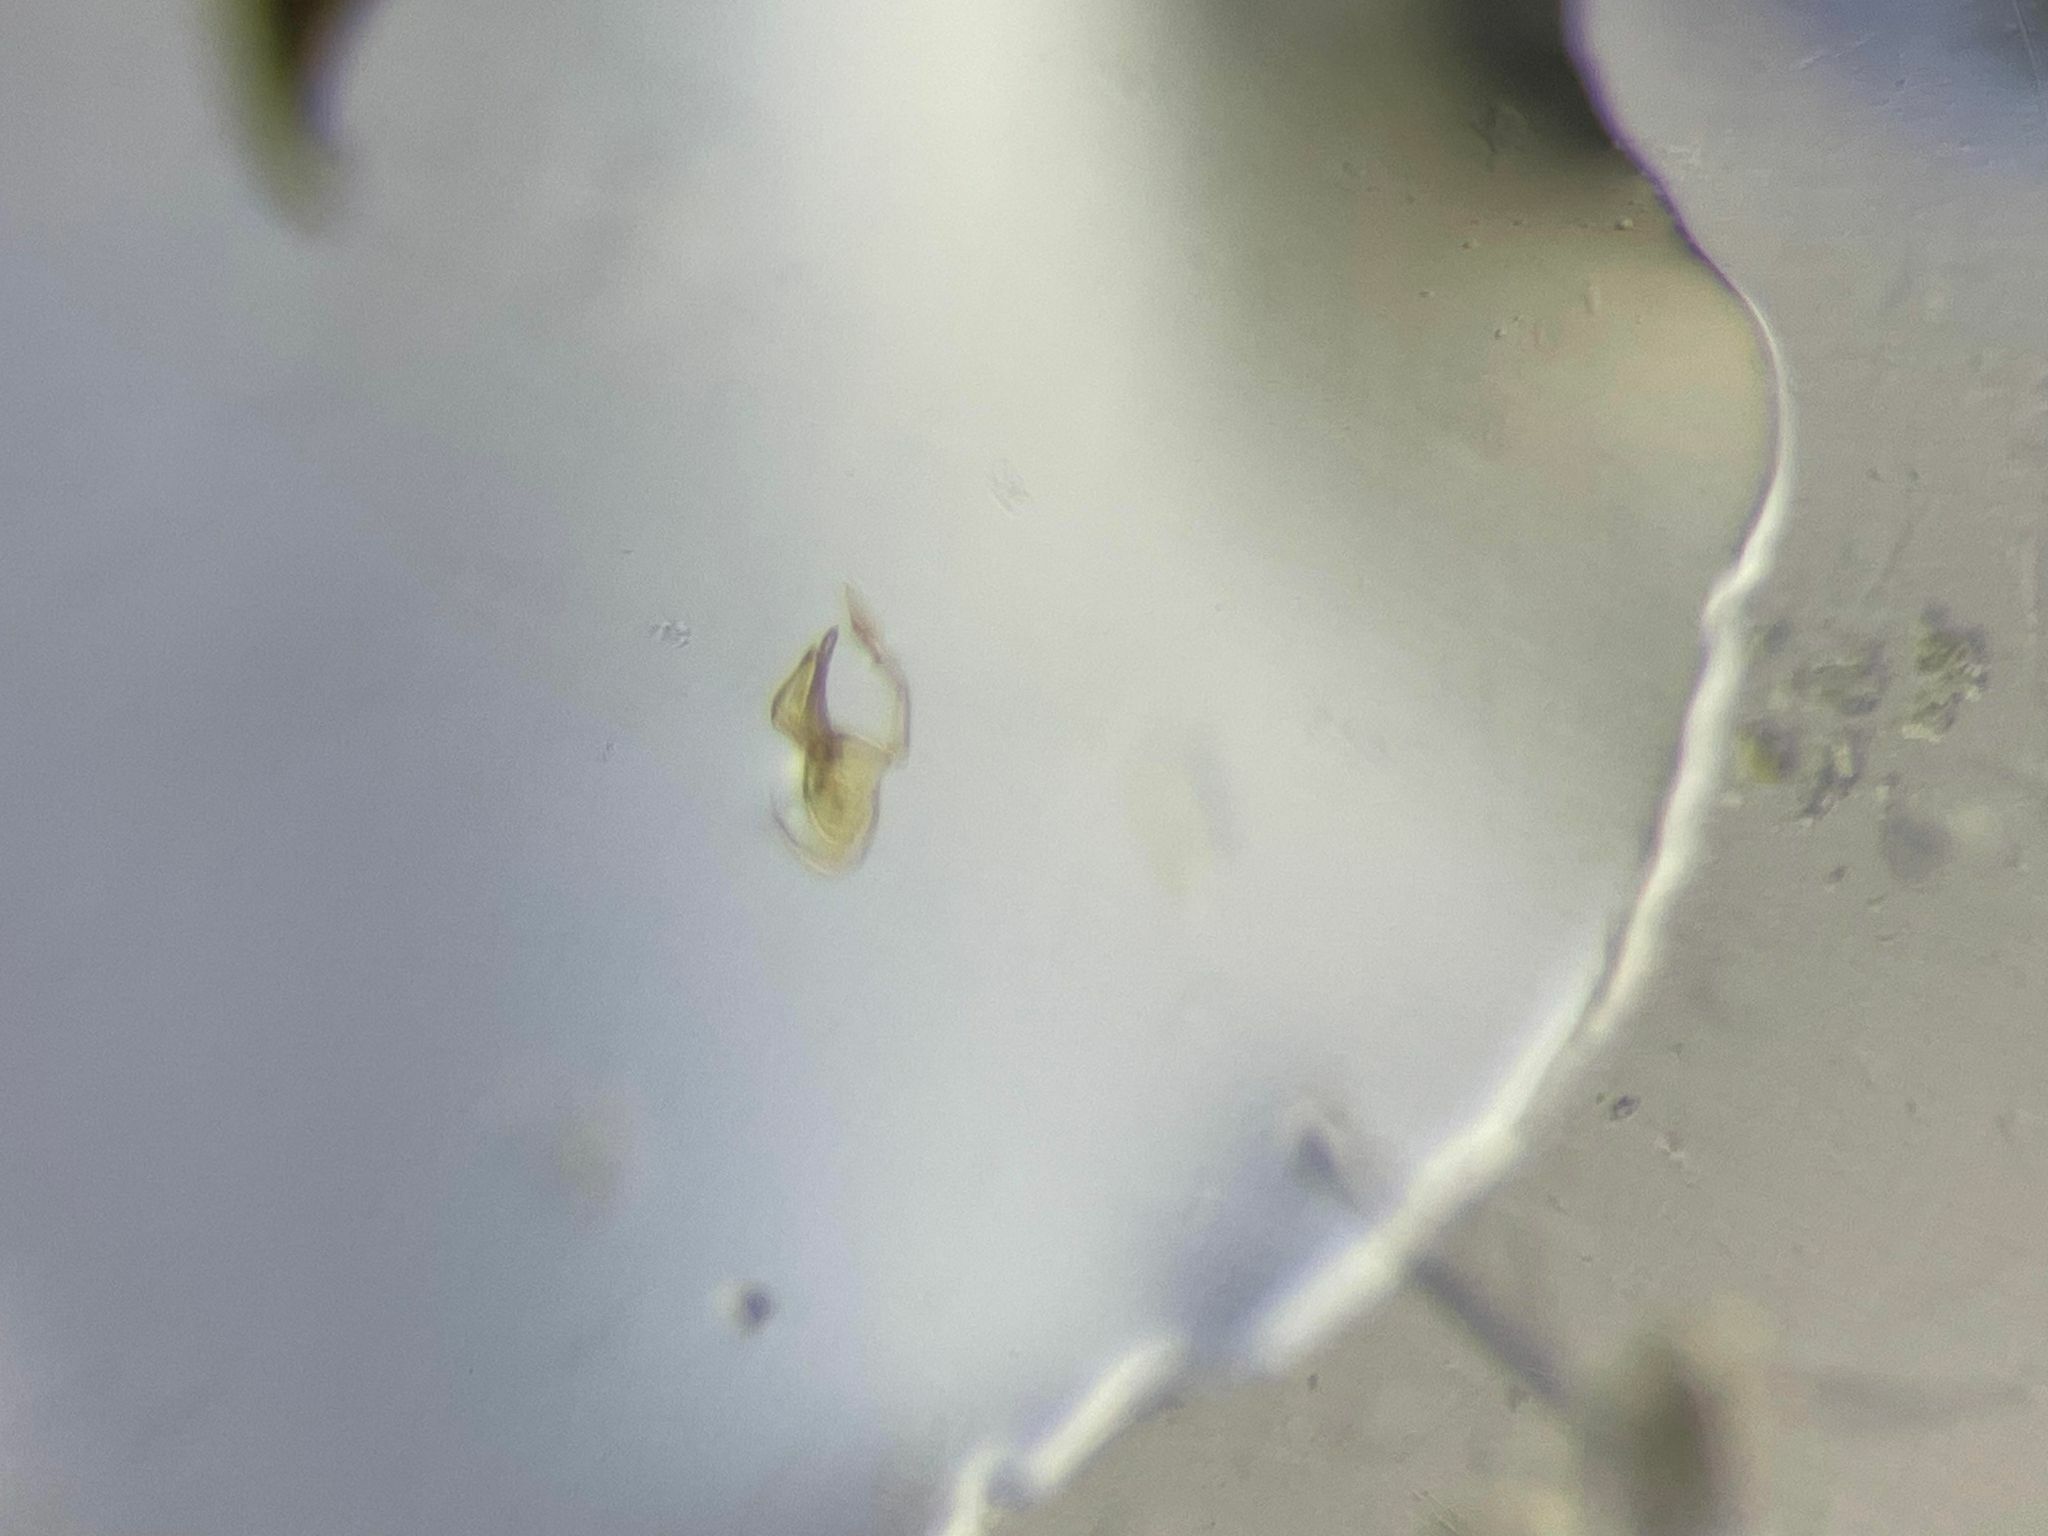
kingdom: Animalia
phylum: Arthropoda
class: Insecta
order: Coleoptera
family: Staphylinidae
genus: Trichiusa
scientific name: Trichiusa hirsuta
